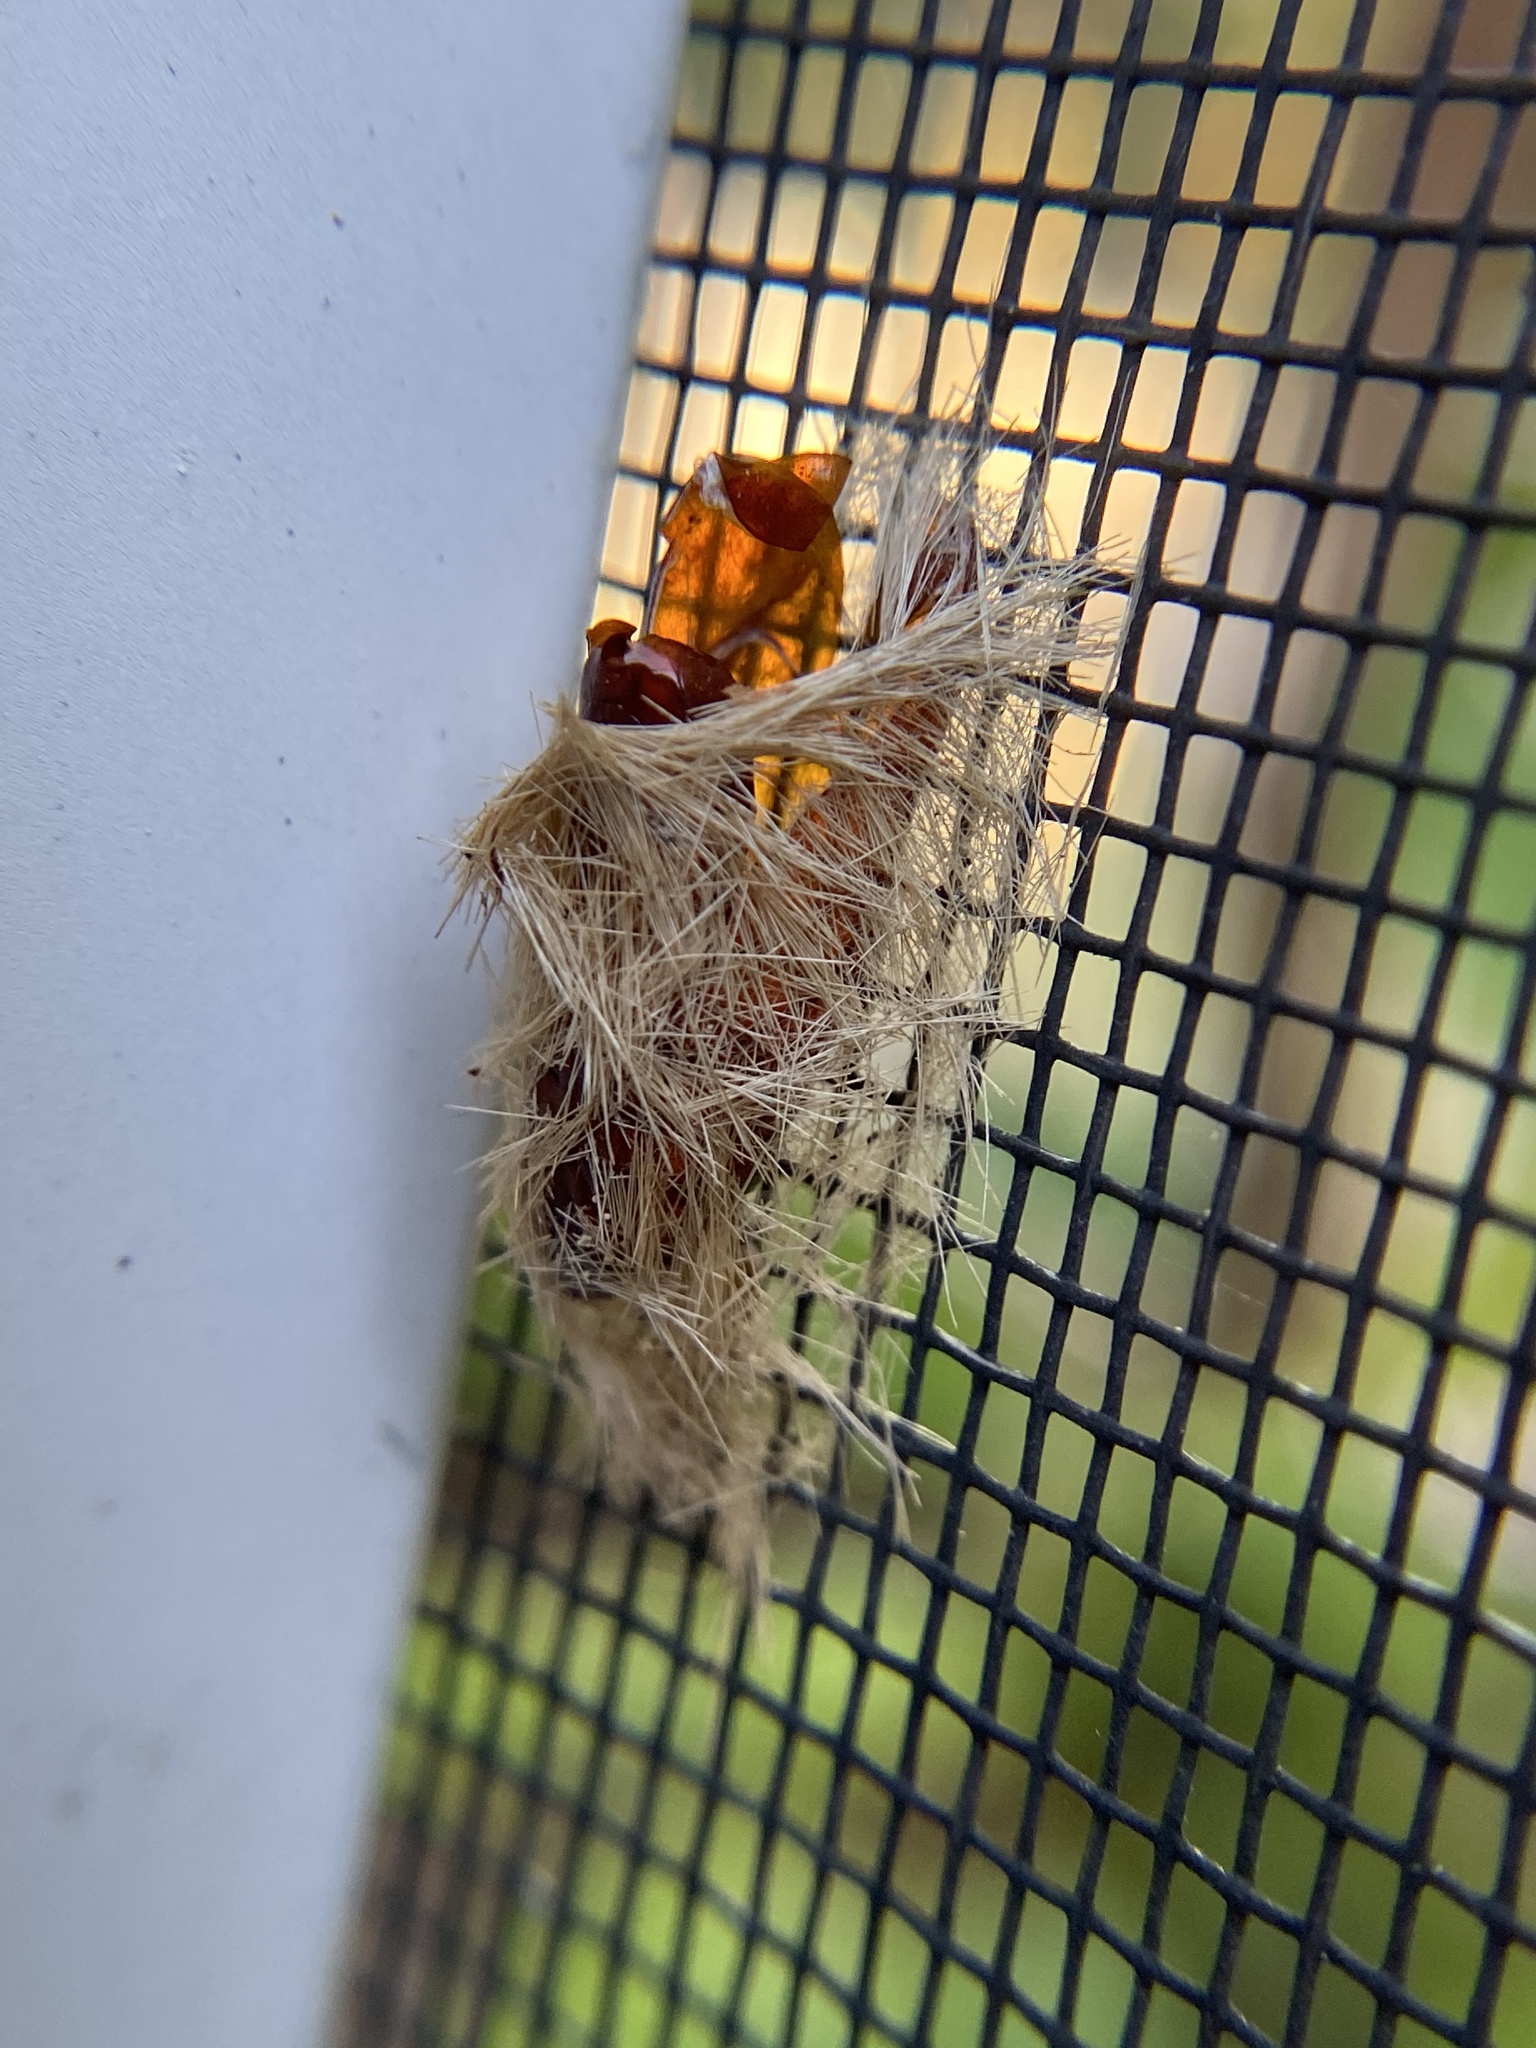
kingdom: Animalia
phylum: Arthropoda
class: Insecta
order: Lepidoptera
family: Erebidae
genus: Lymire
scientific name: Lymire edwardsii
